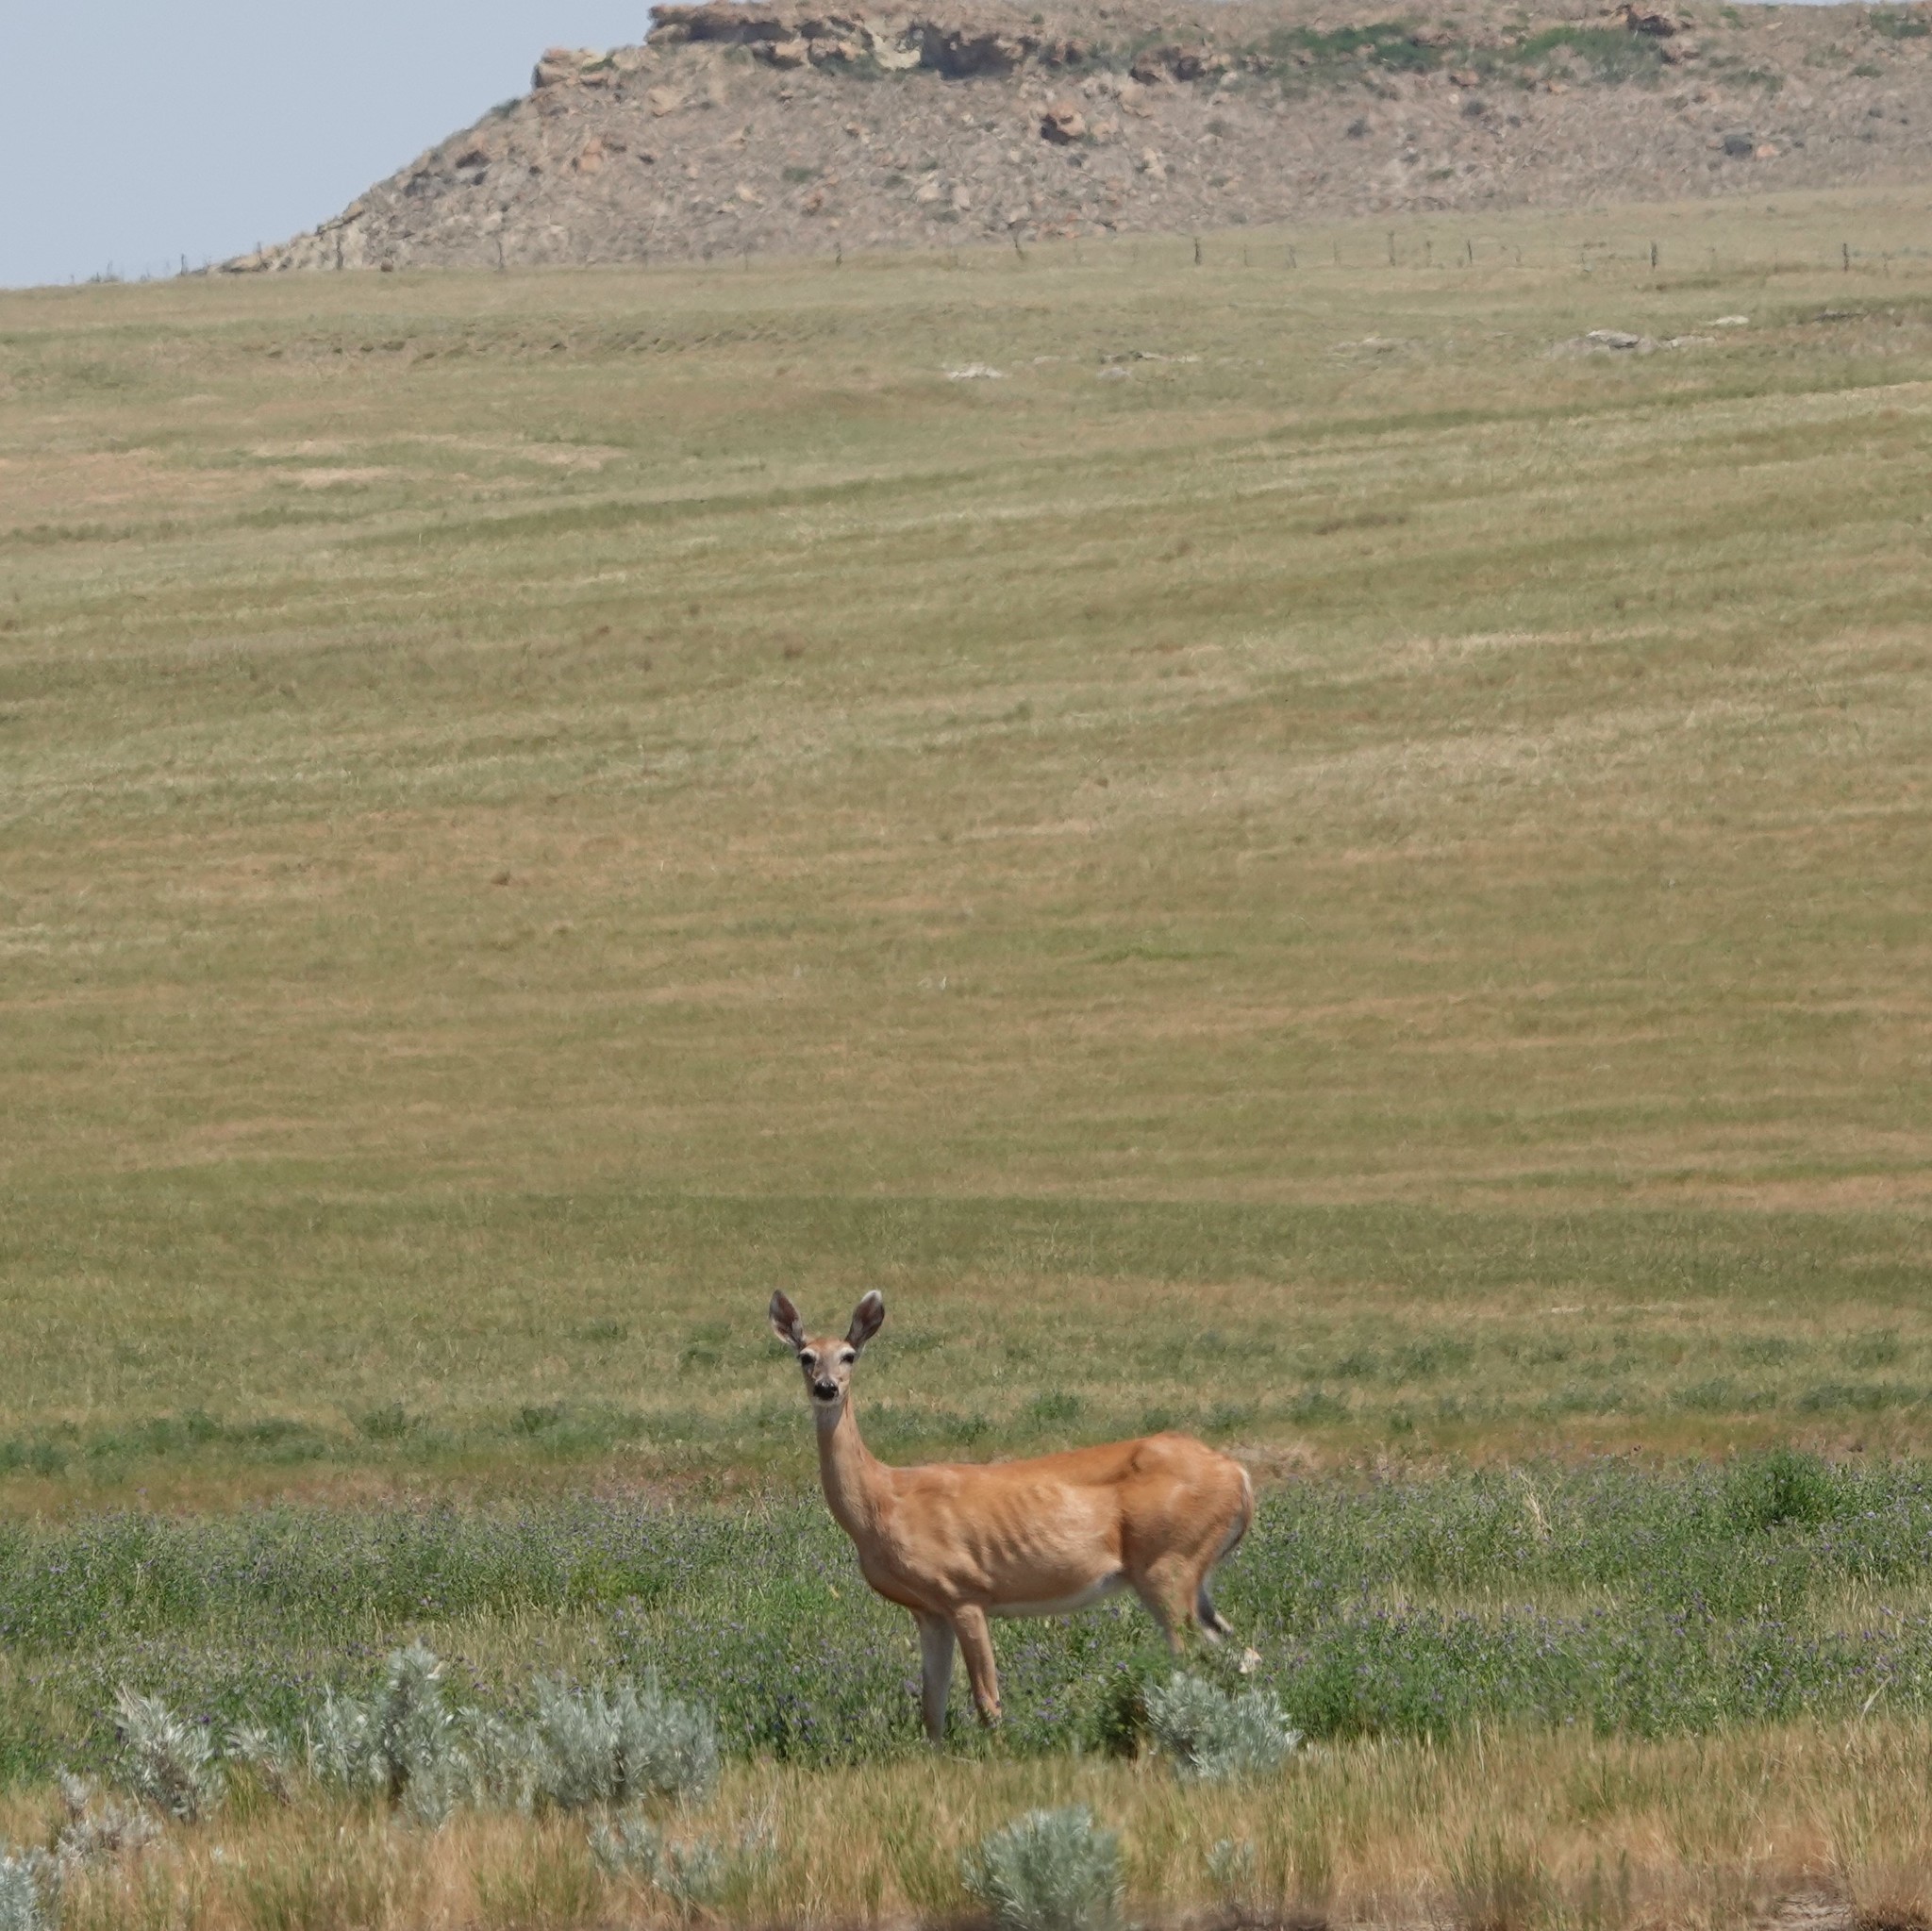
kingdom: Animalia
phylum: Chordata
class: Mammalia
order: Artiodactyla
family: Cervidae
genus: Odocoileus
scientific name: Odocoileus virginianus
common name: White-tailed deer
